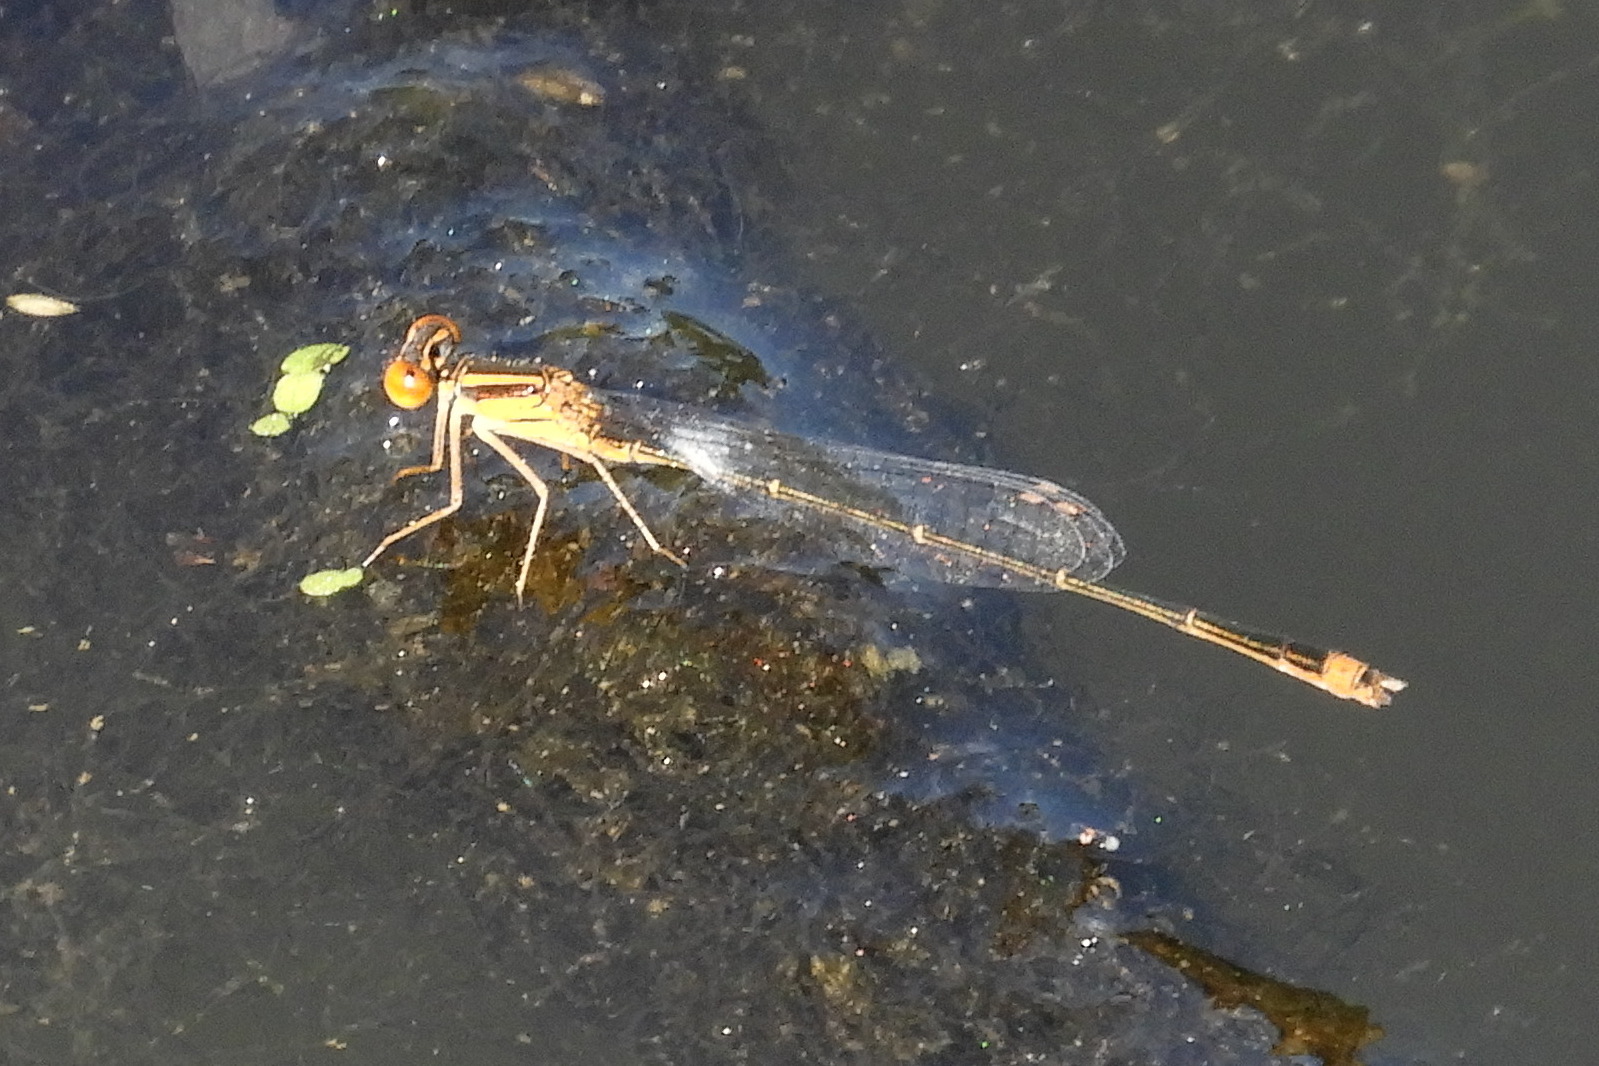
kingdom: Animalia
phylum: Arthropoda
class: Insecta
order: Odonata
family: Coenagrionidae
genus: Enallagma
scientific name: Enallagma signatum
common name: Orange bluet
